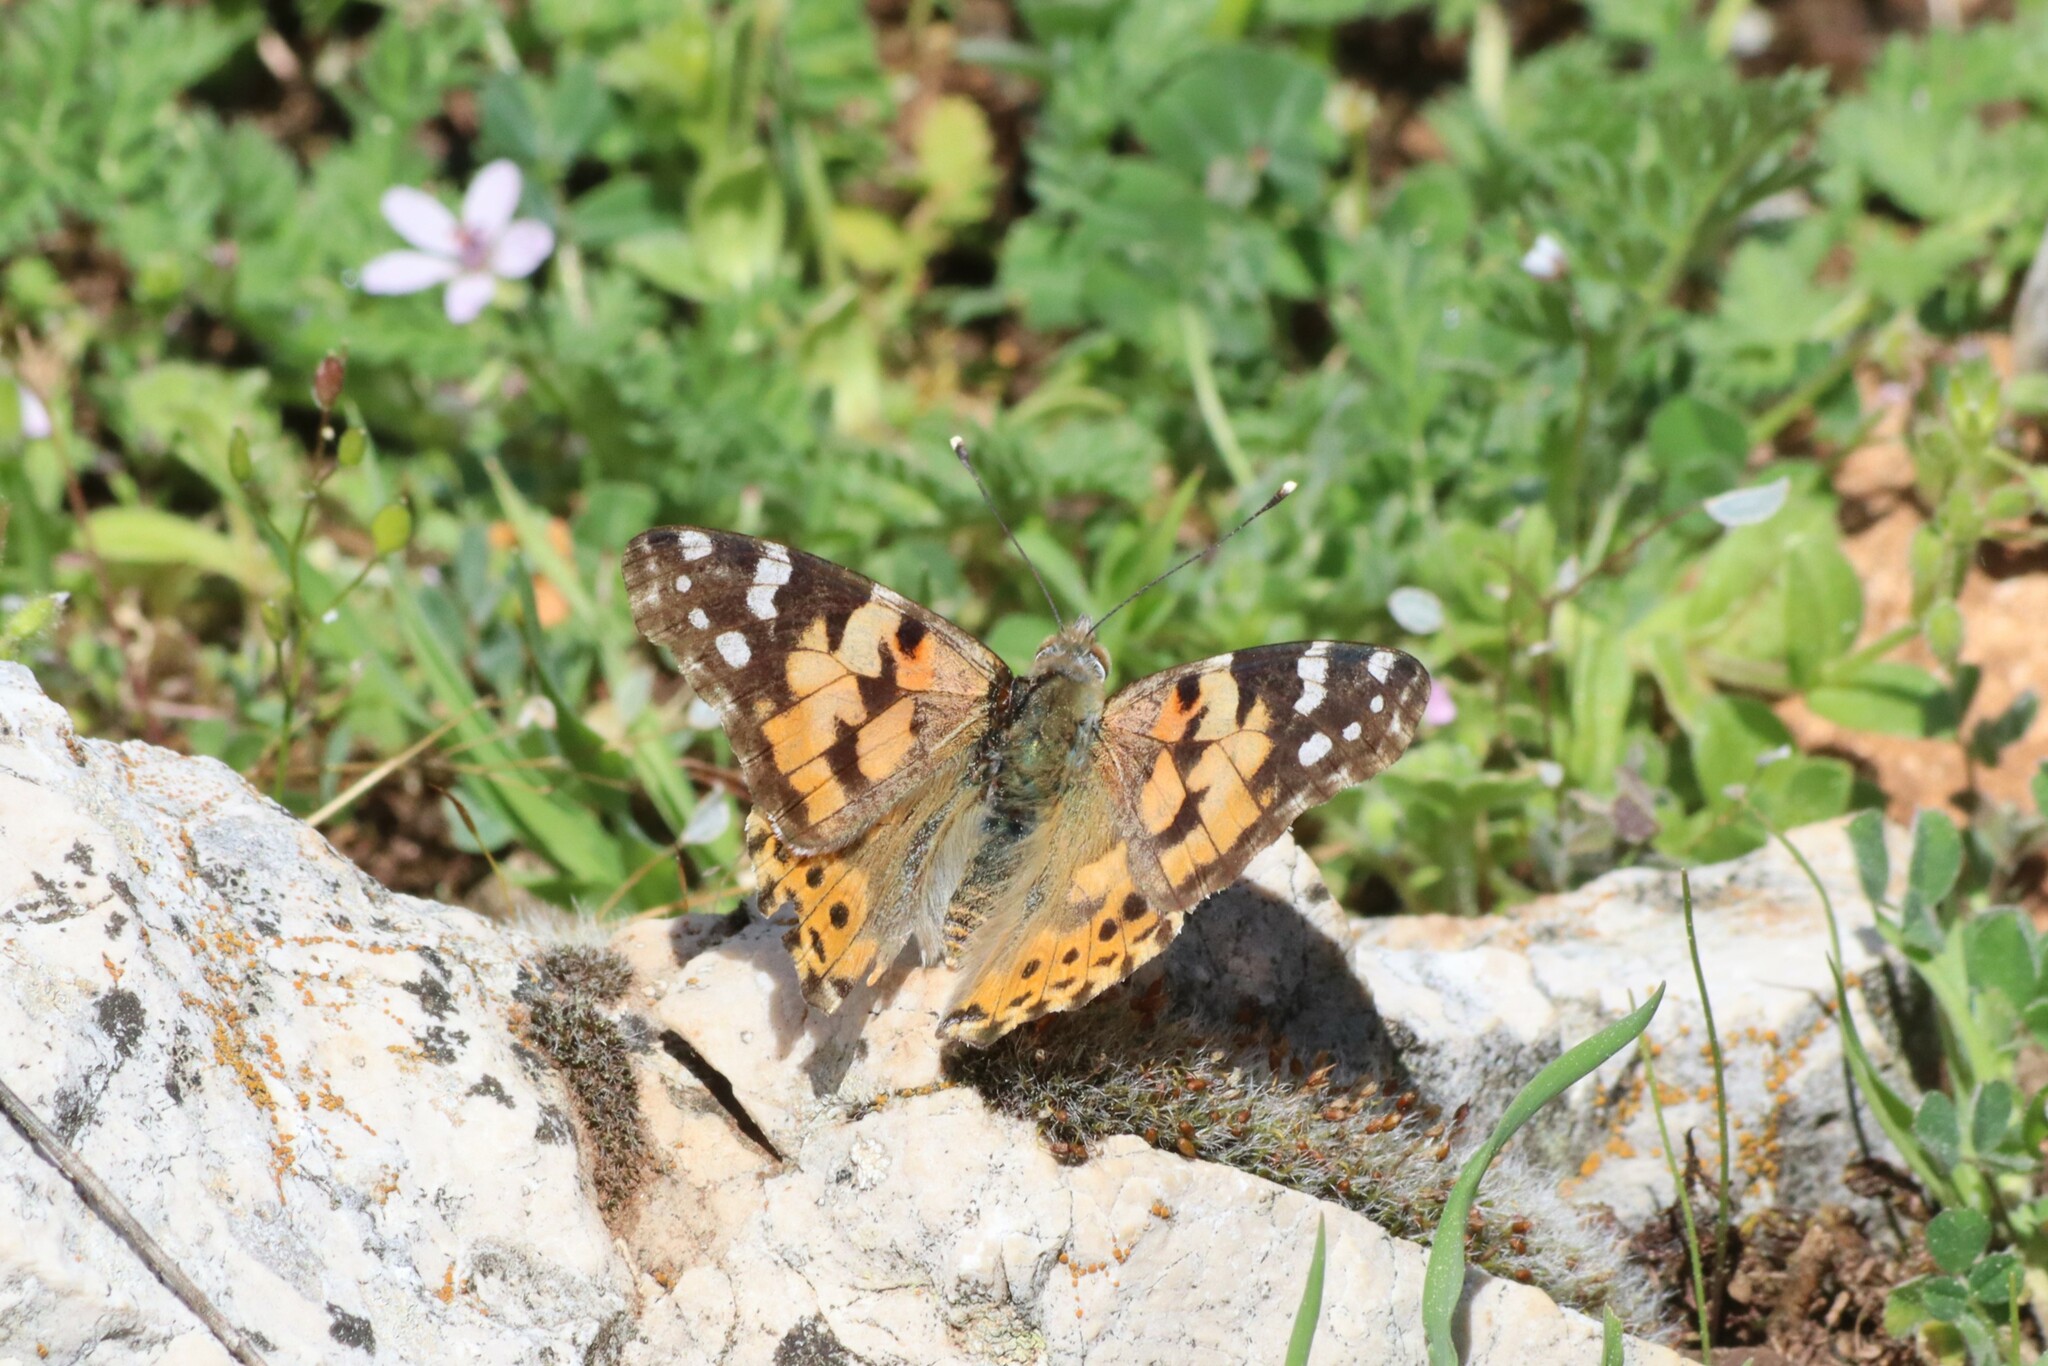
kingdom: Animalia
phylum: Arthropoda
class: Insecta
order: Lepidoptera
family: Nymphalidae
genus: Vanessa
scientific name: Vanessa cardui
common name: Painted lady
